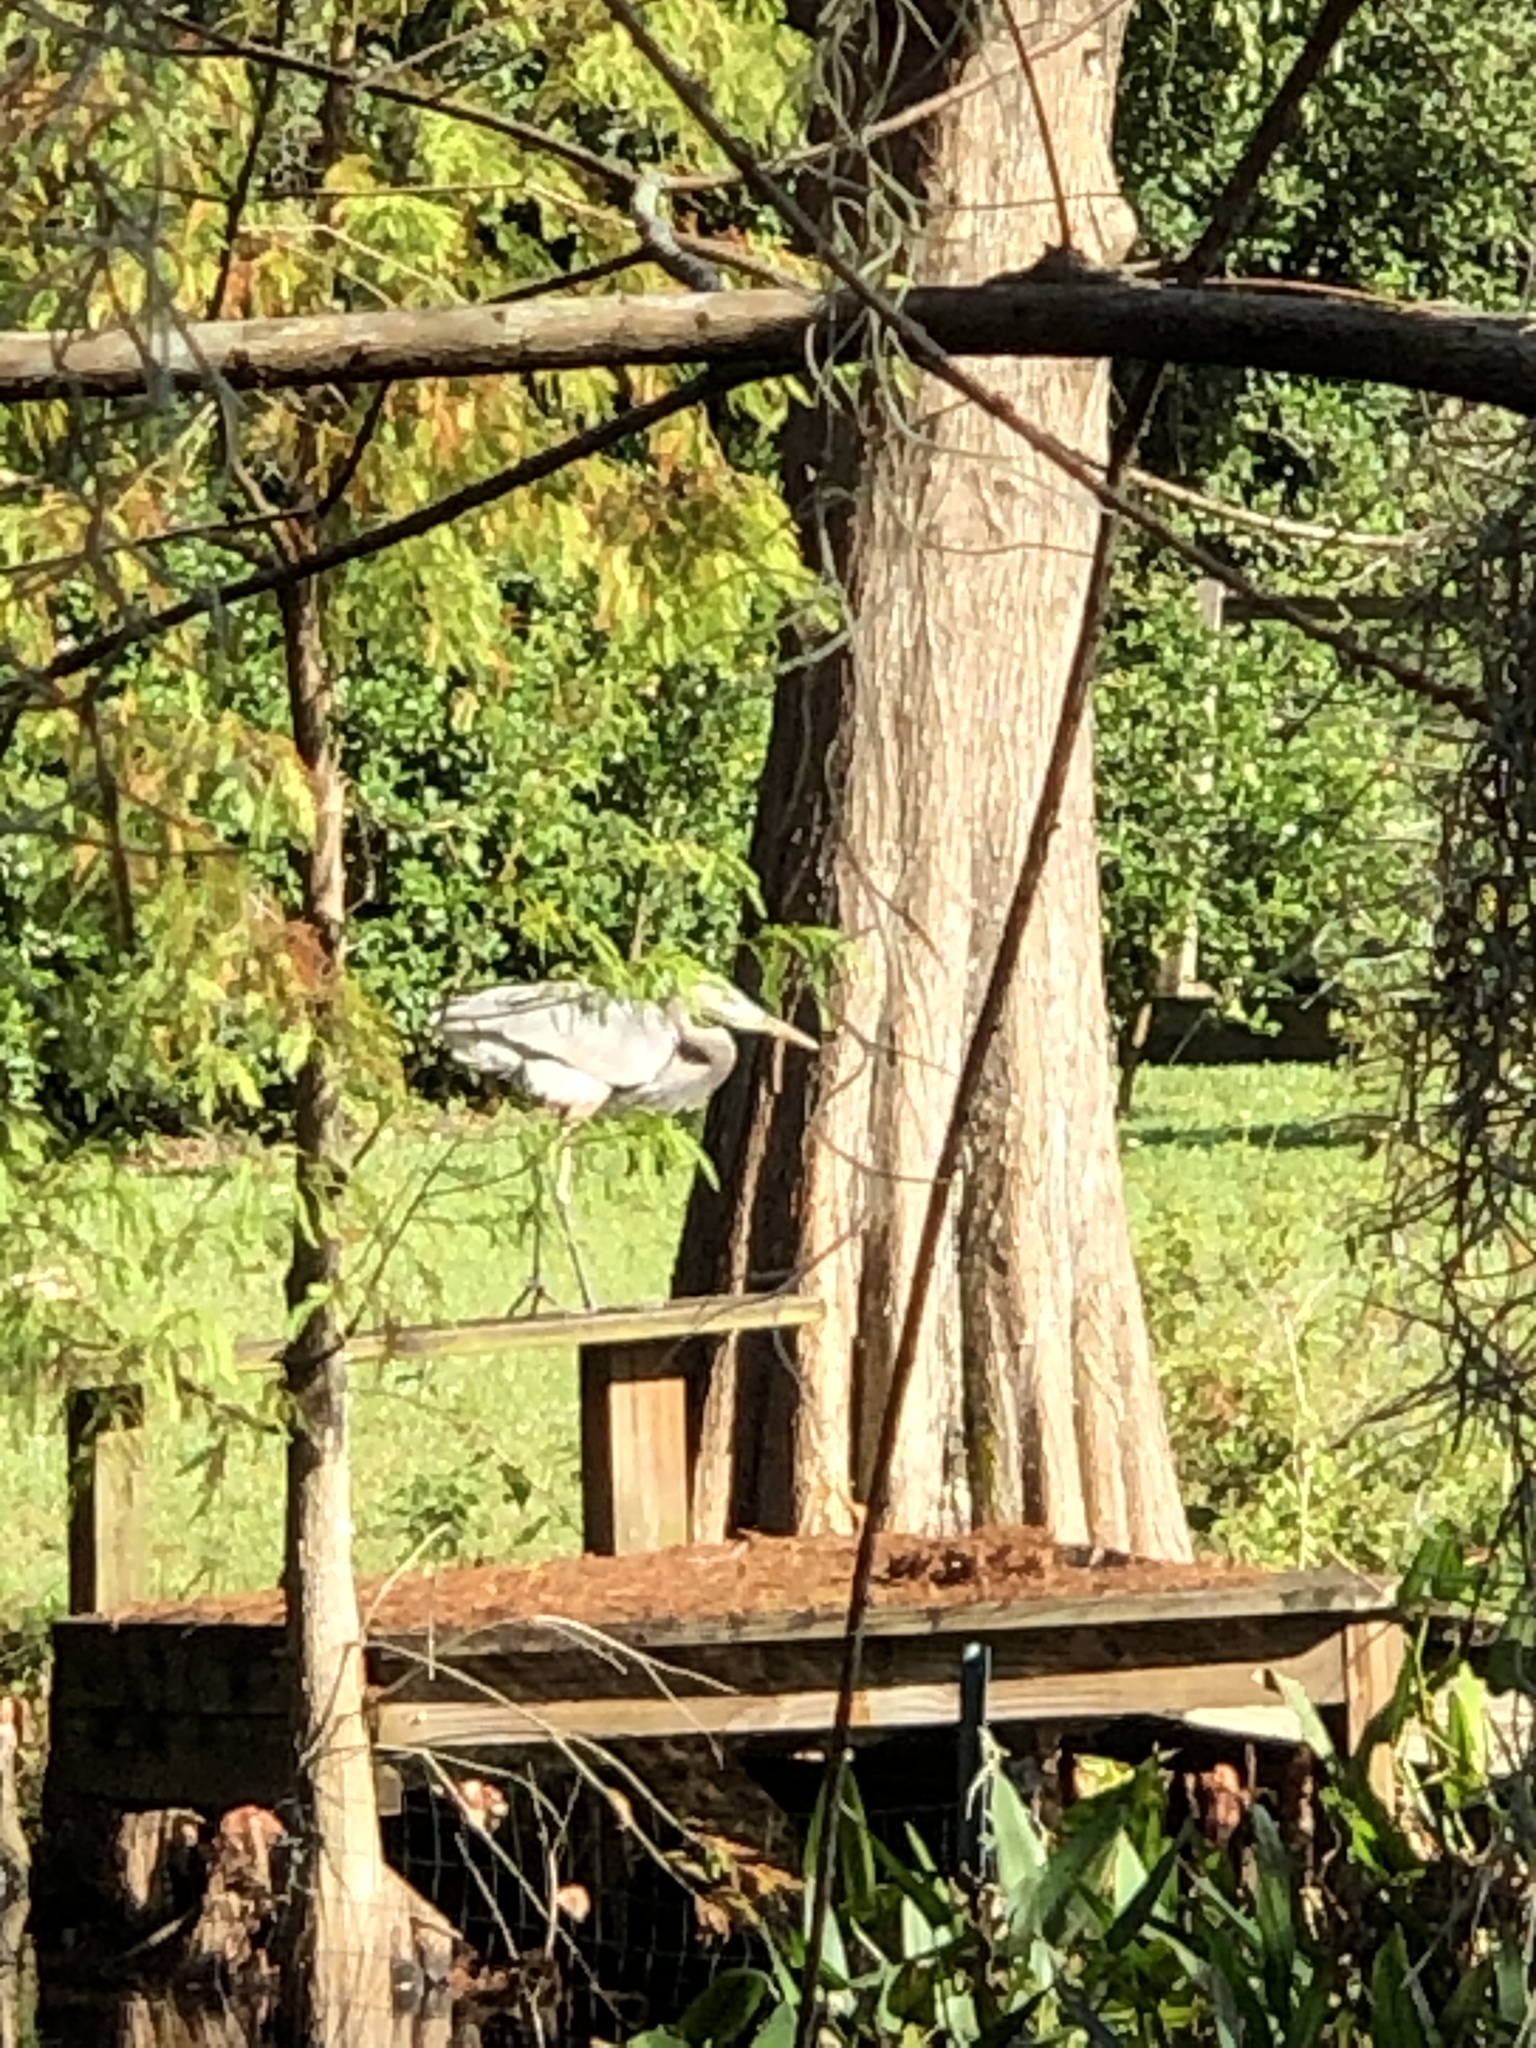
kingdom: Animalia
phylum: Chordata
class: Aves
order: Pelecaniformes
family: Ardeidae
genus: Ardea
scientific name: Ardea herodias
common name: Great blue heron
